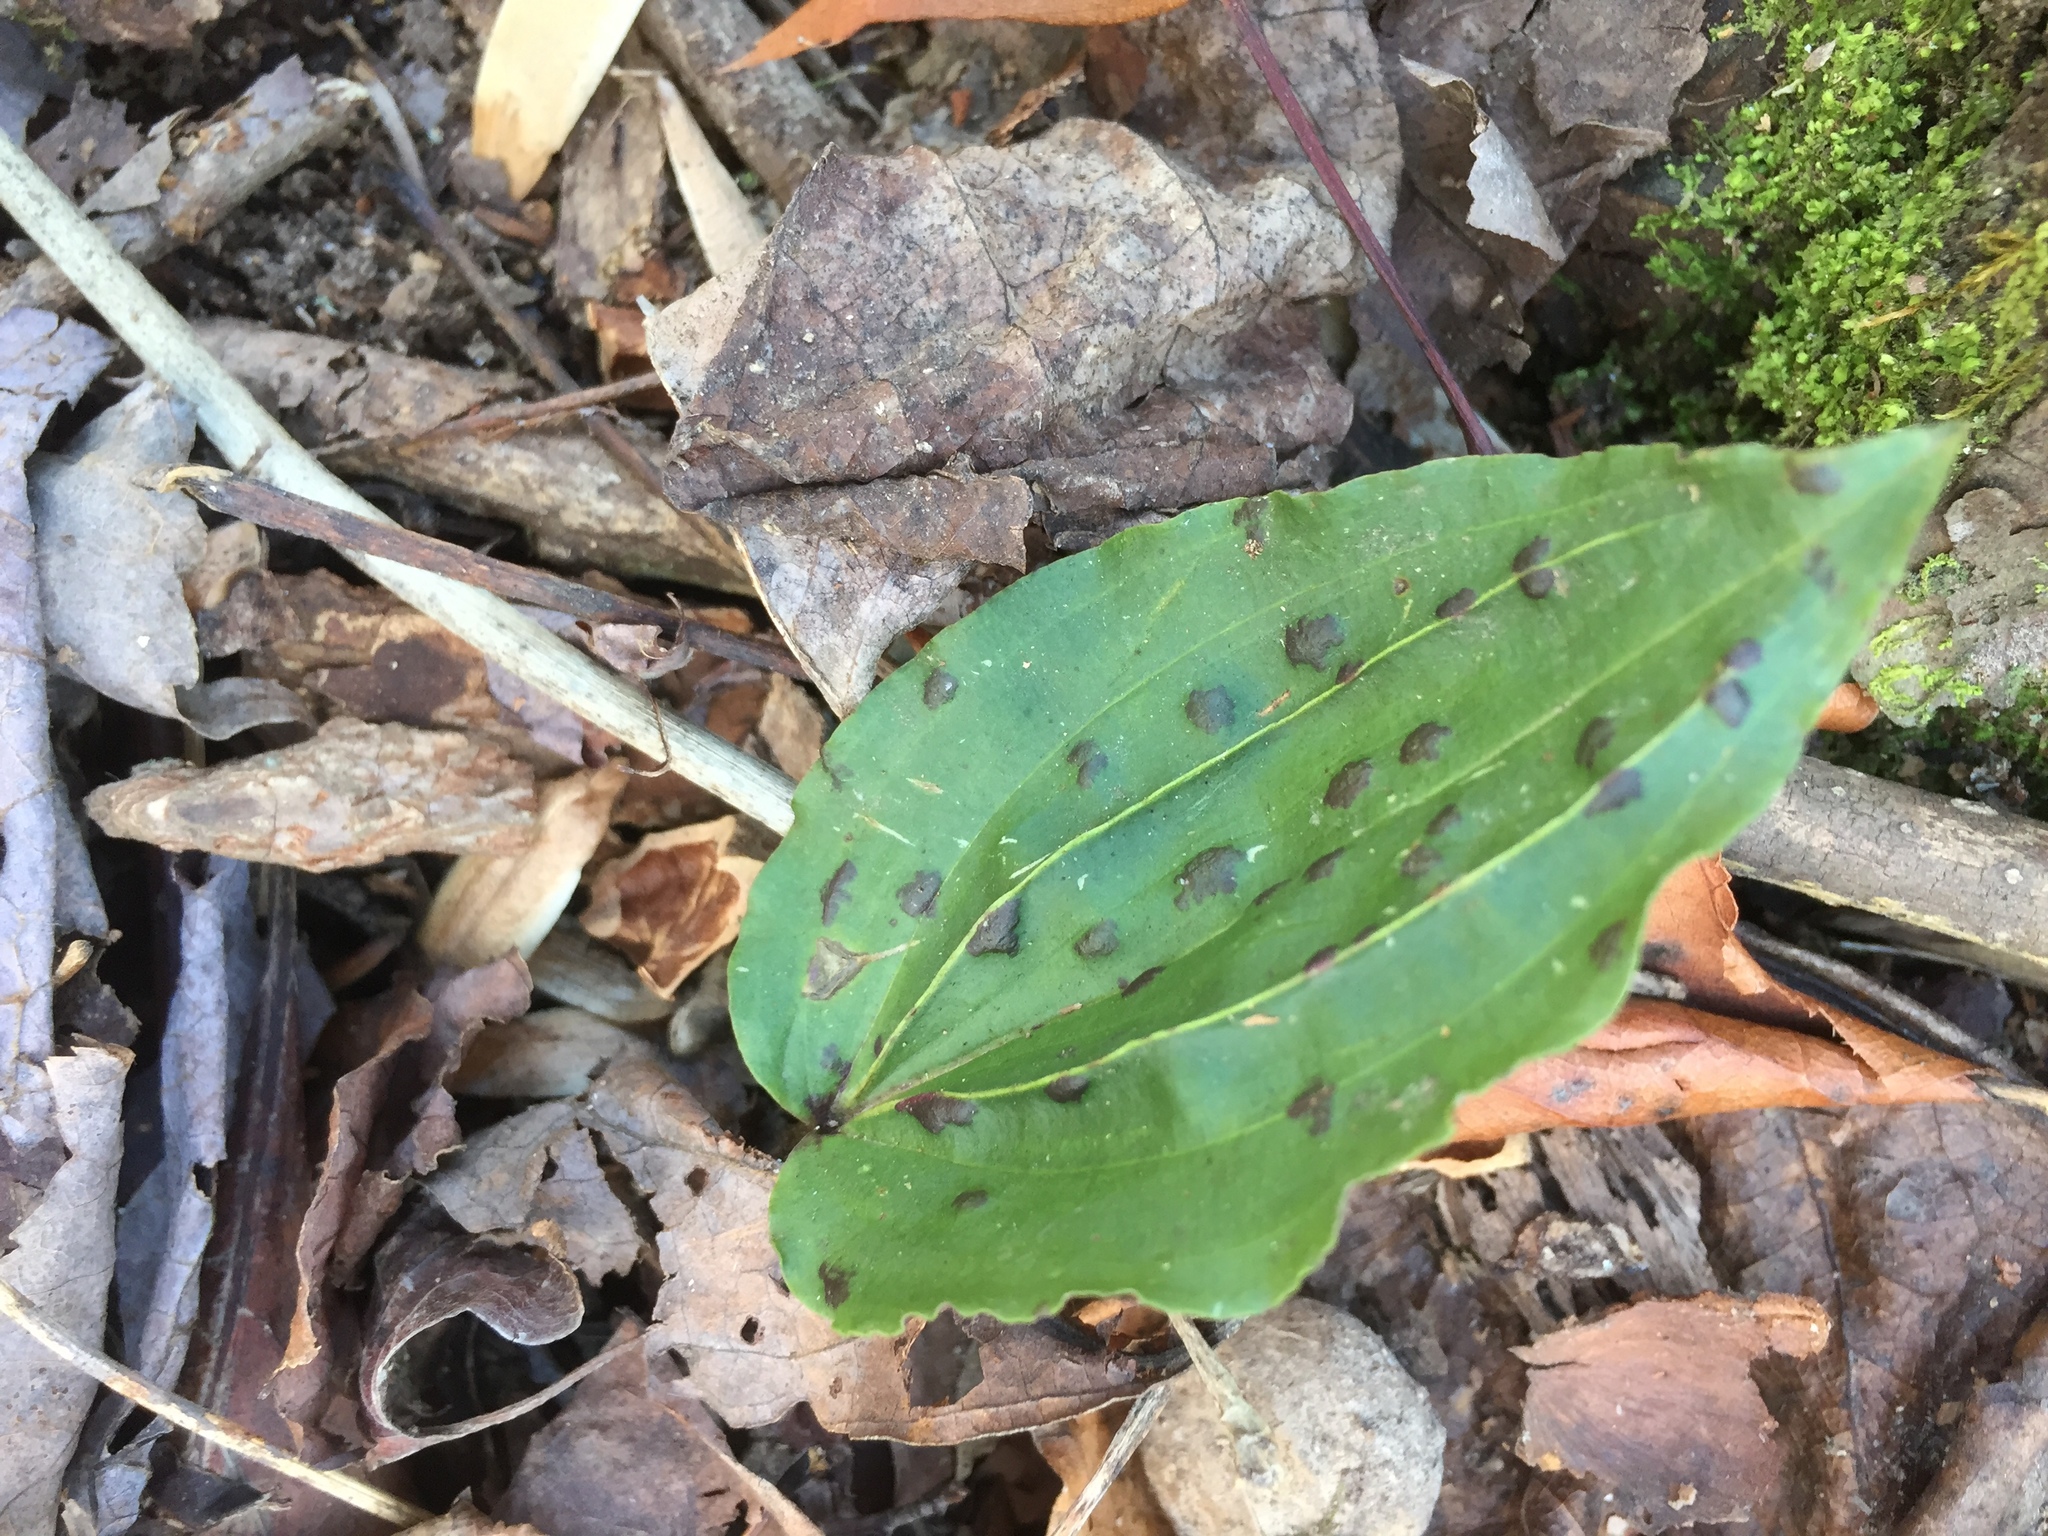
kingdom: Plantae
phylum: Tracheophyta
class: Liliopsida
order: Asparagales
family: Orchidaceae
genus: Tipularia
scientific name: Tipularia discolor
